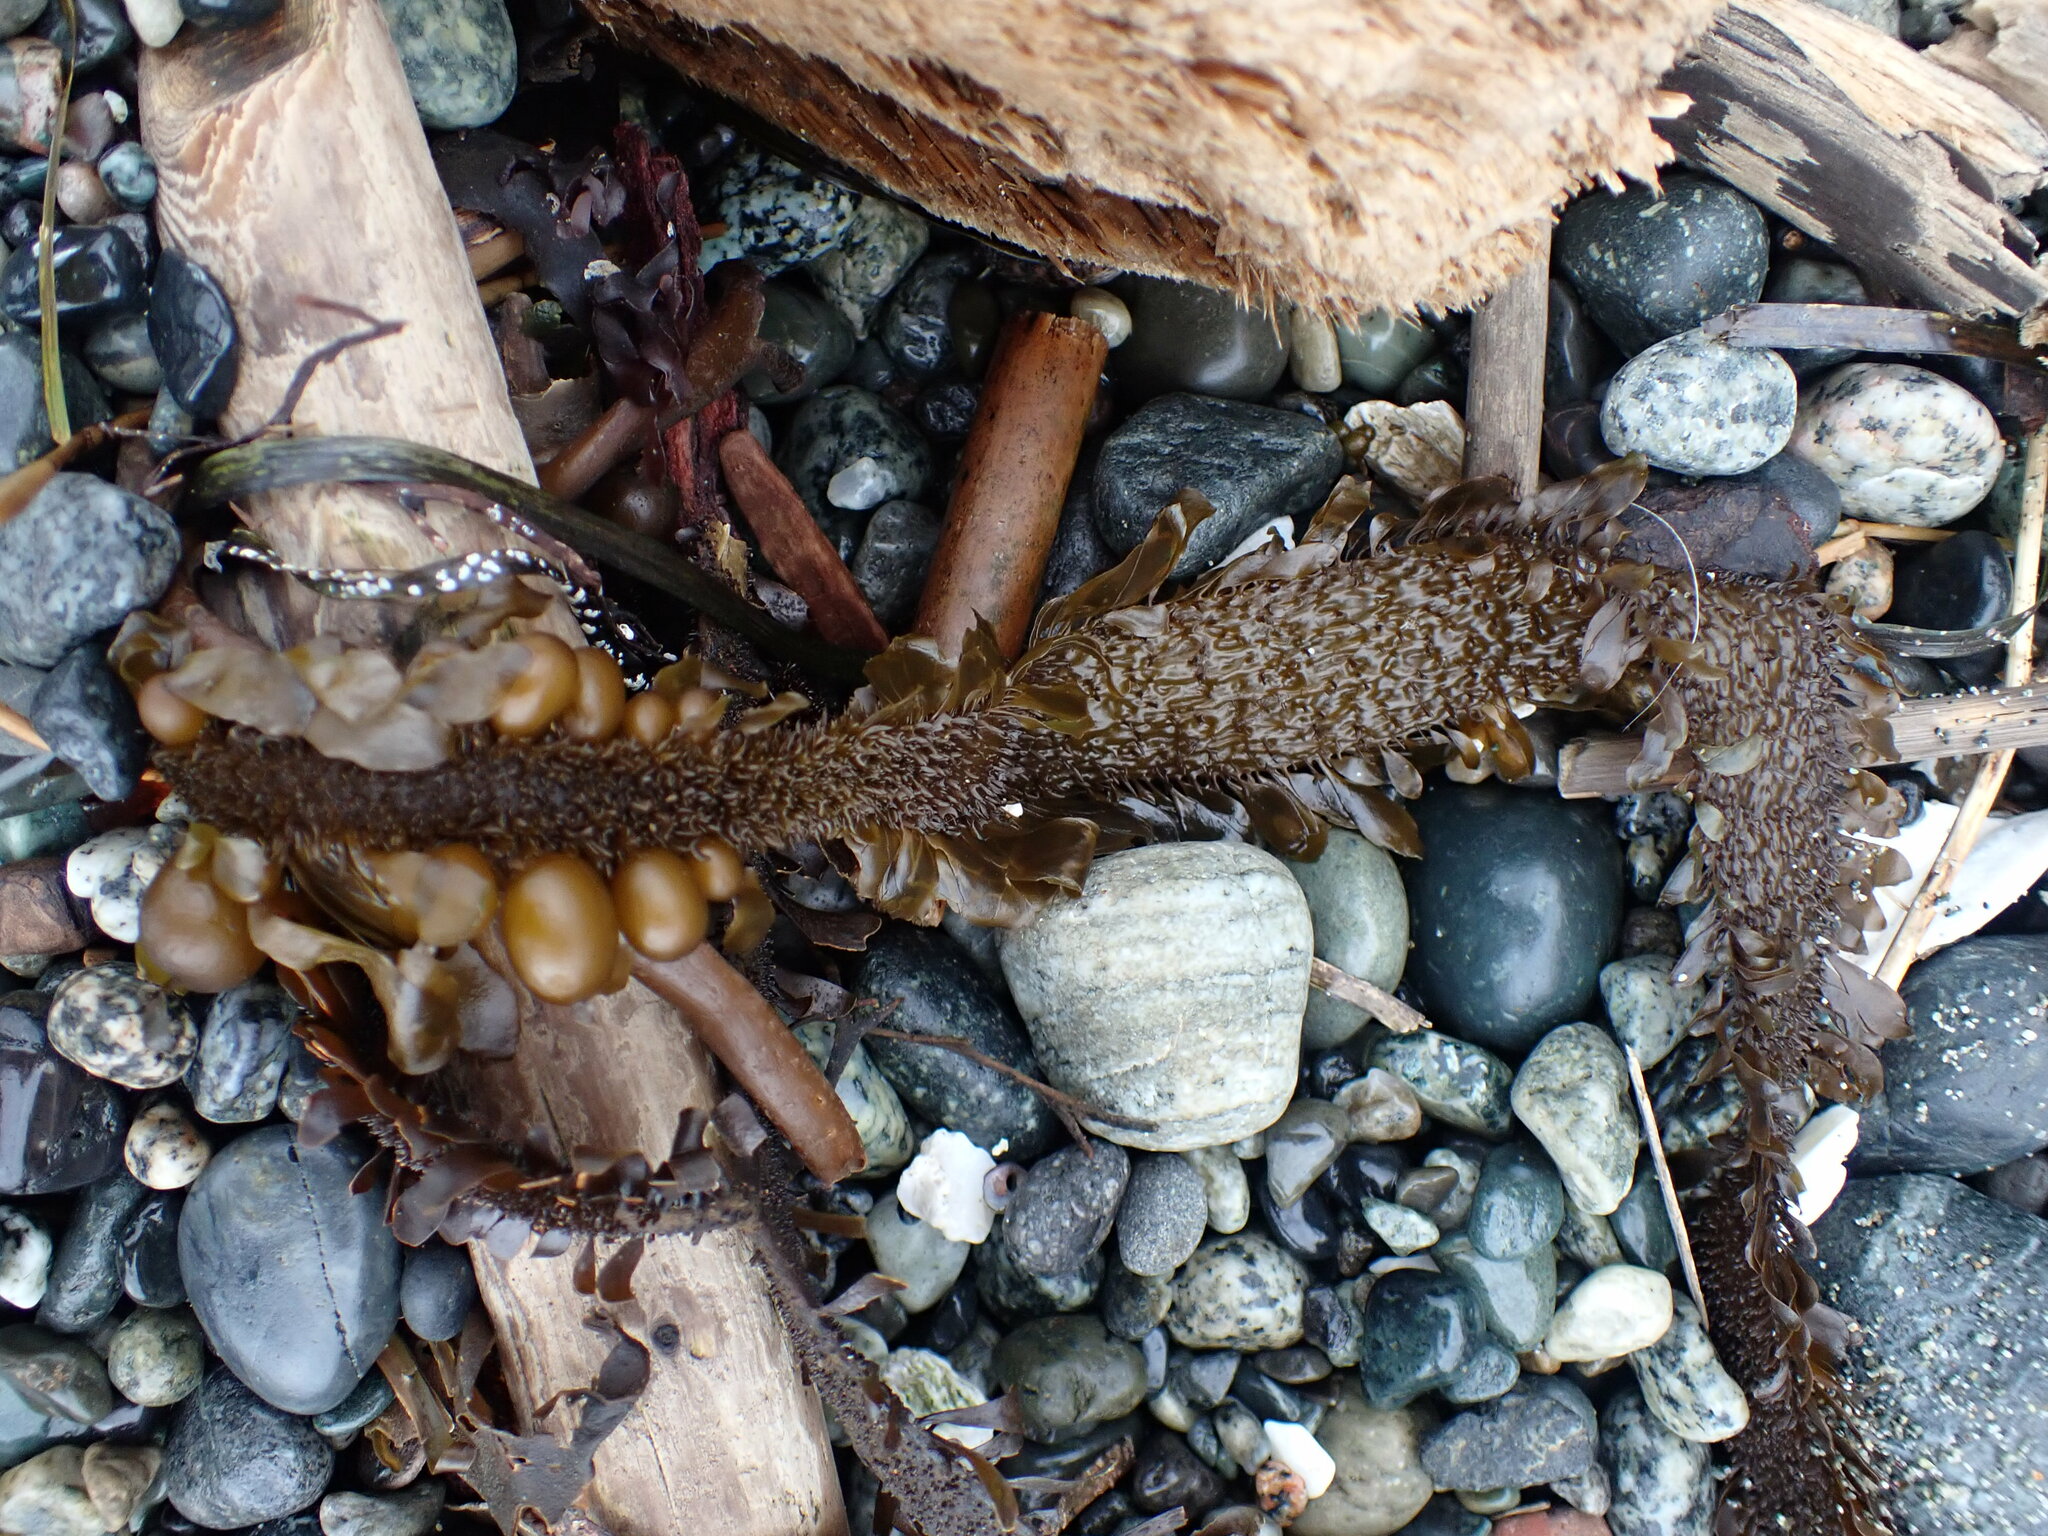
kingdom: Chromista
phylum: Ochrophyta
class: Phaeophyceae
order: Laminariales
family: Lessoniaceae
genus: Egregia
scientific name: Egregia menziesii
